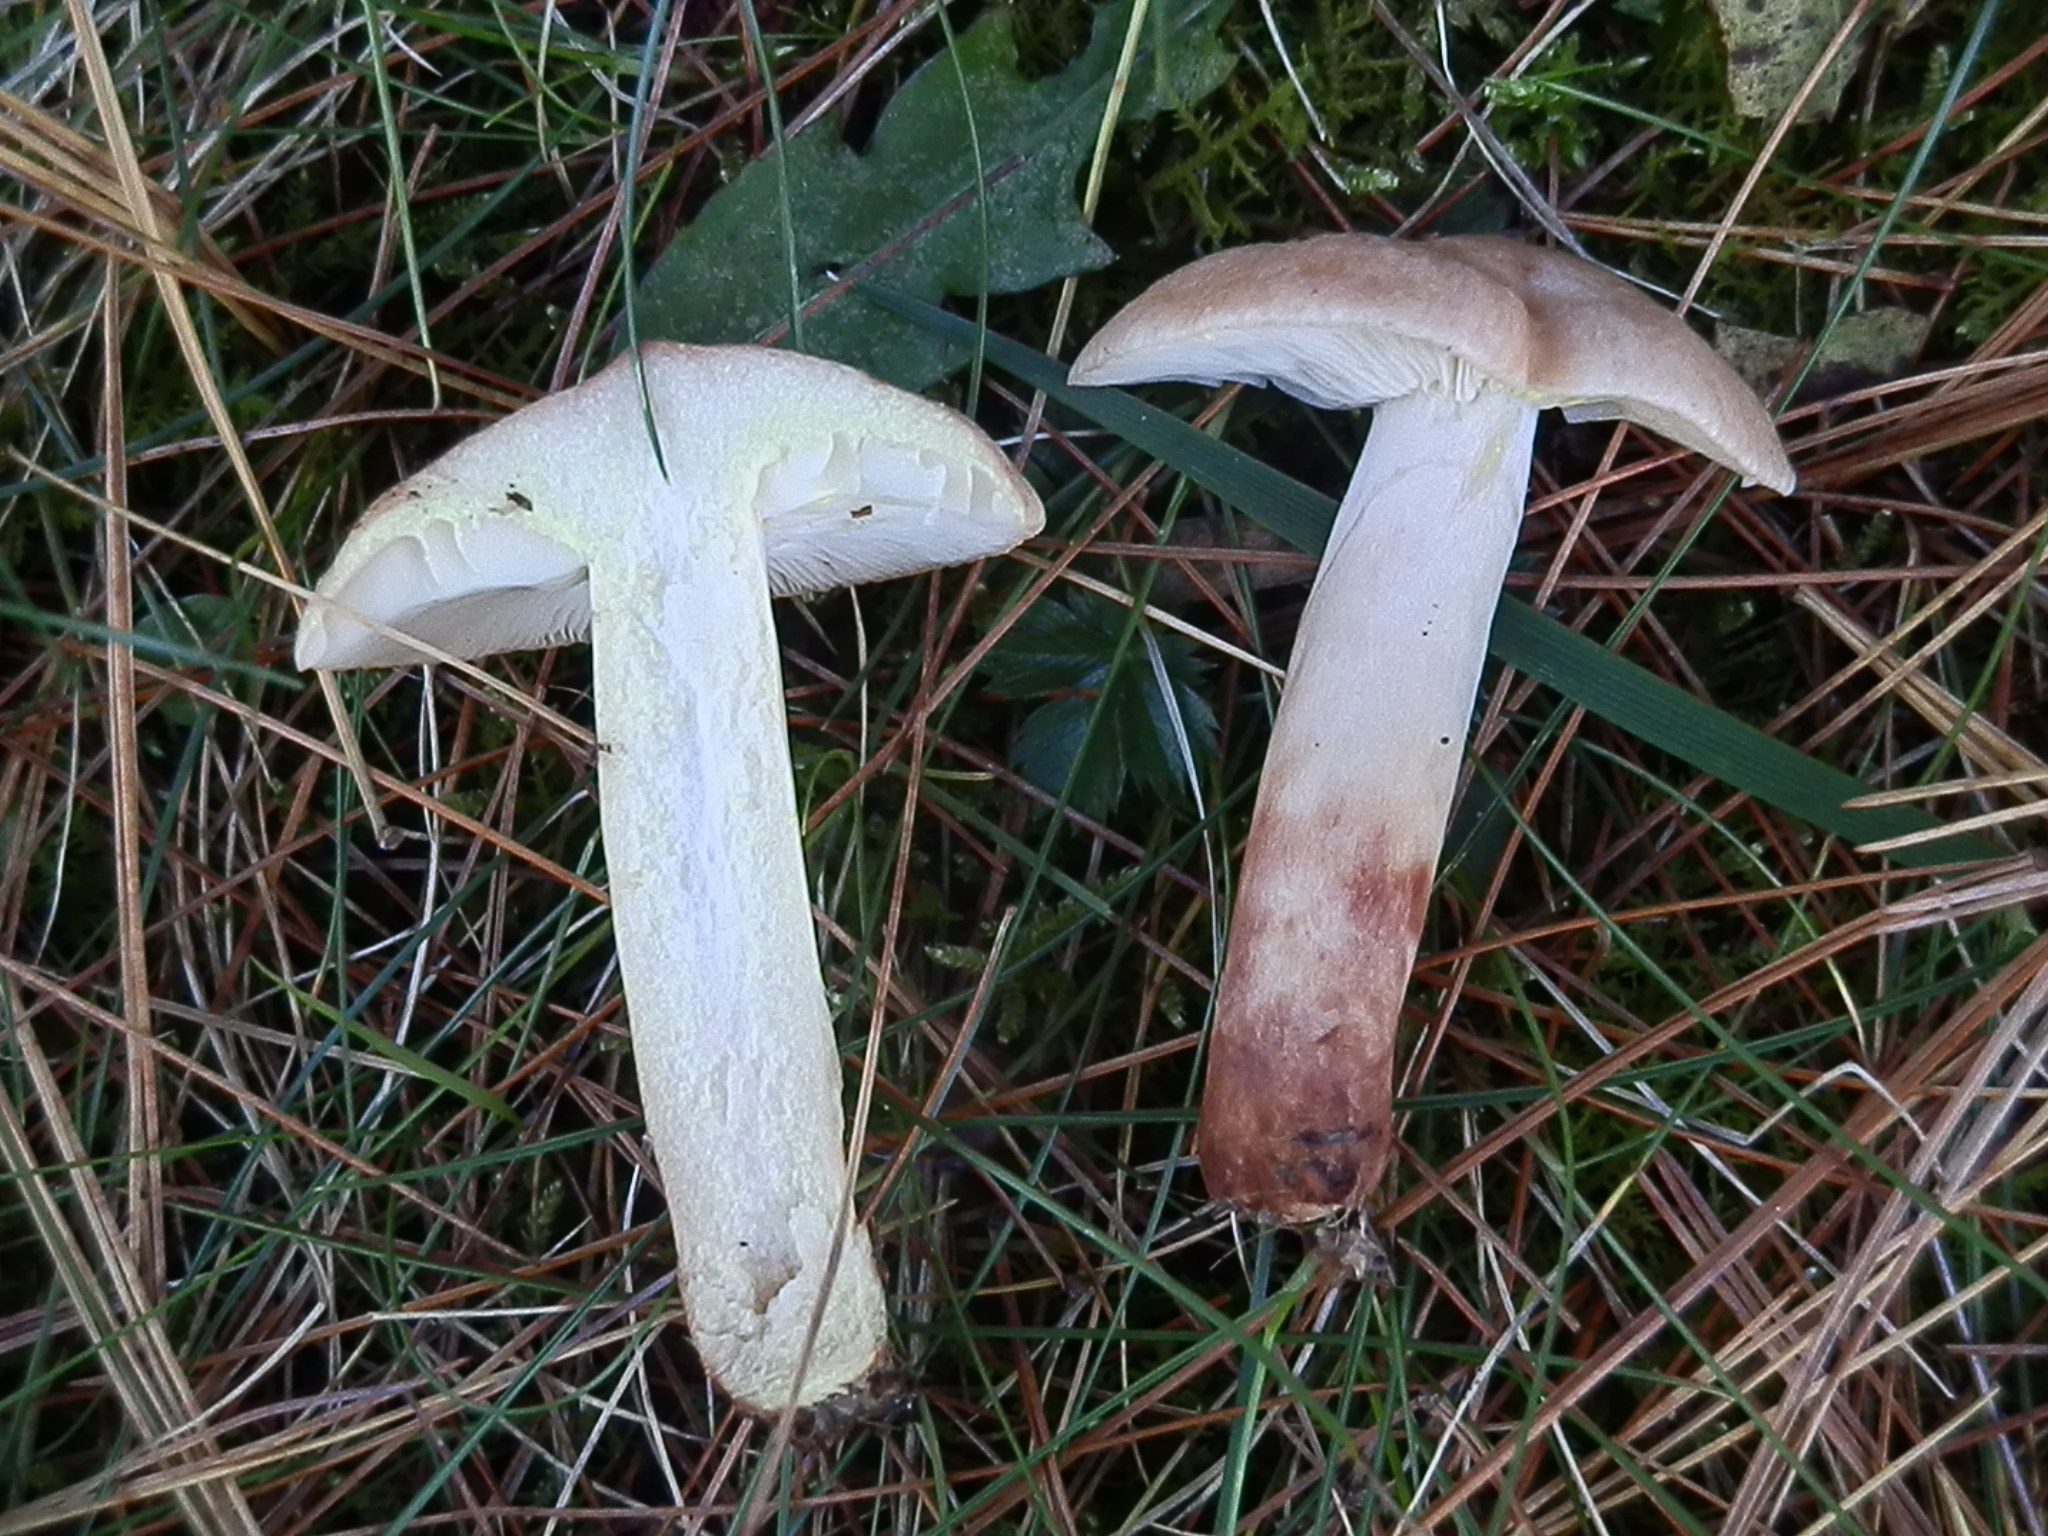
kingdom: Fungi
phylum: Basidiomycota
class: Agaricomycetes
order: Russulales
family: Russulaceae
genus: Lactarius
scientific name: Lactarius vinaceorufescens
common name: Yellow-latex milkcap
